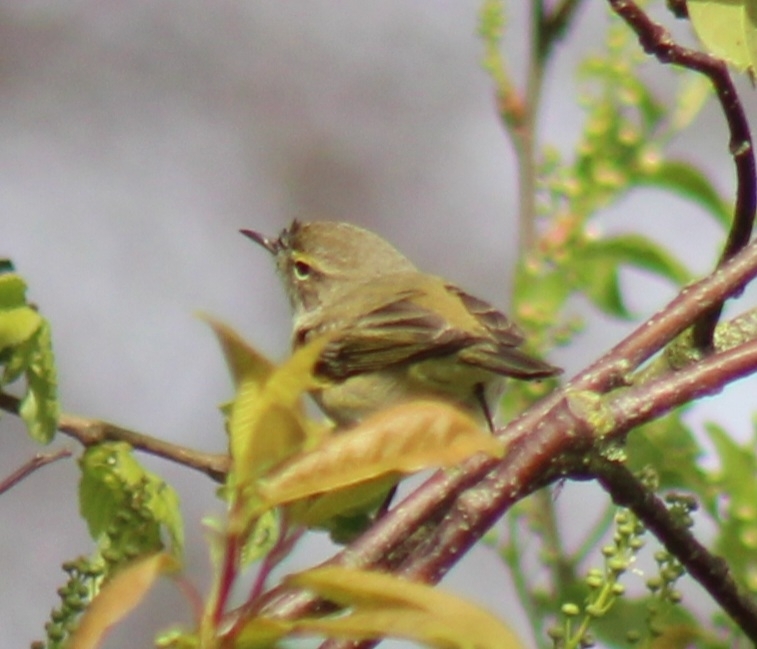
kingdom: Animalia
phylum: Chordata
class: Aves
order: Passeriformes
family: Phylloscopidae
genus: Phylloscopus
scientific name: Phylloscopus collybita
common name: Common chiffchaff
